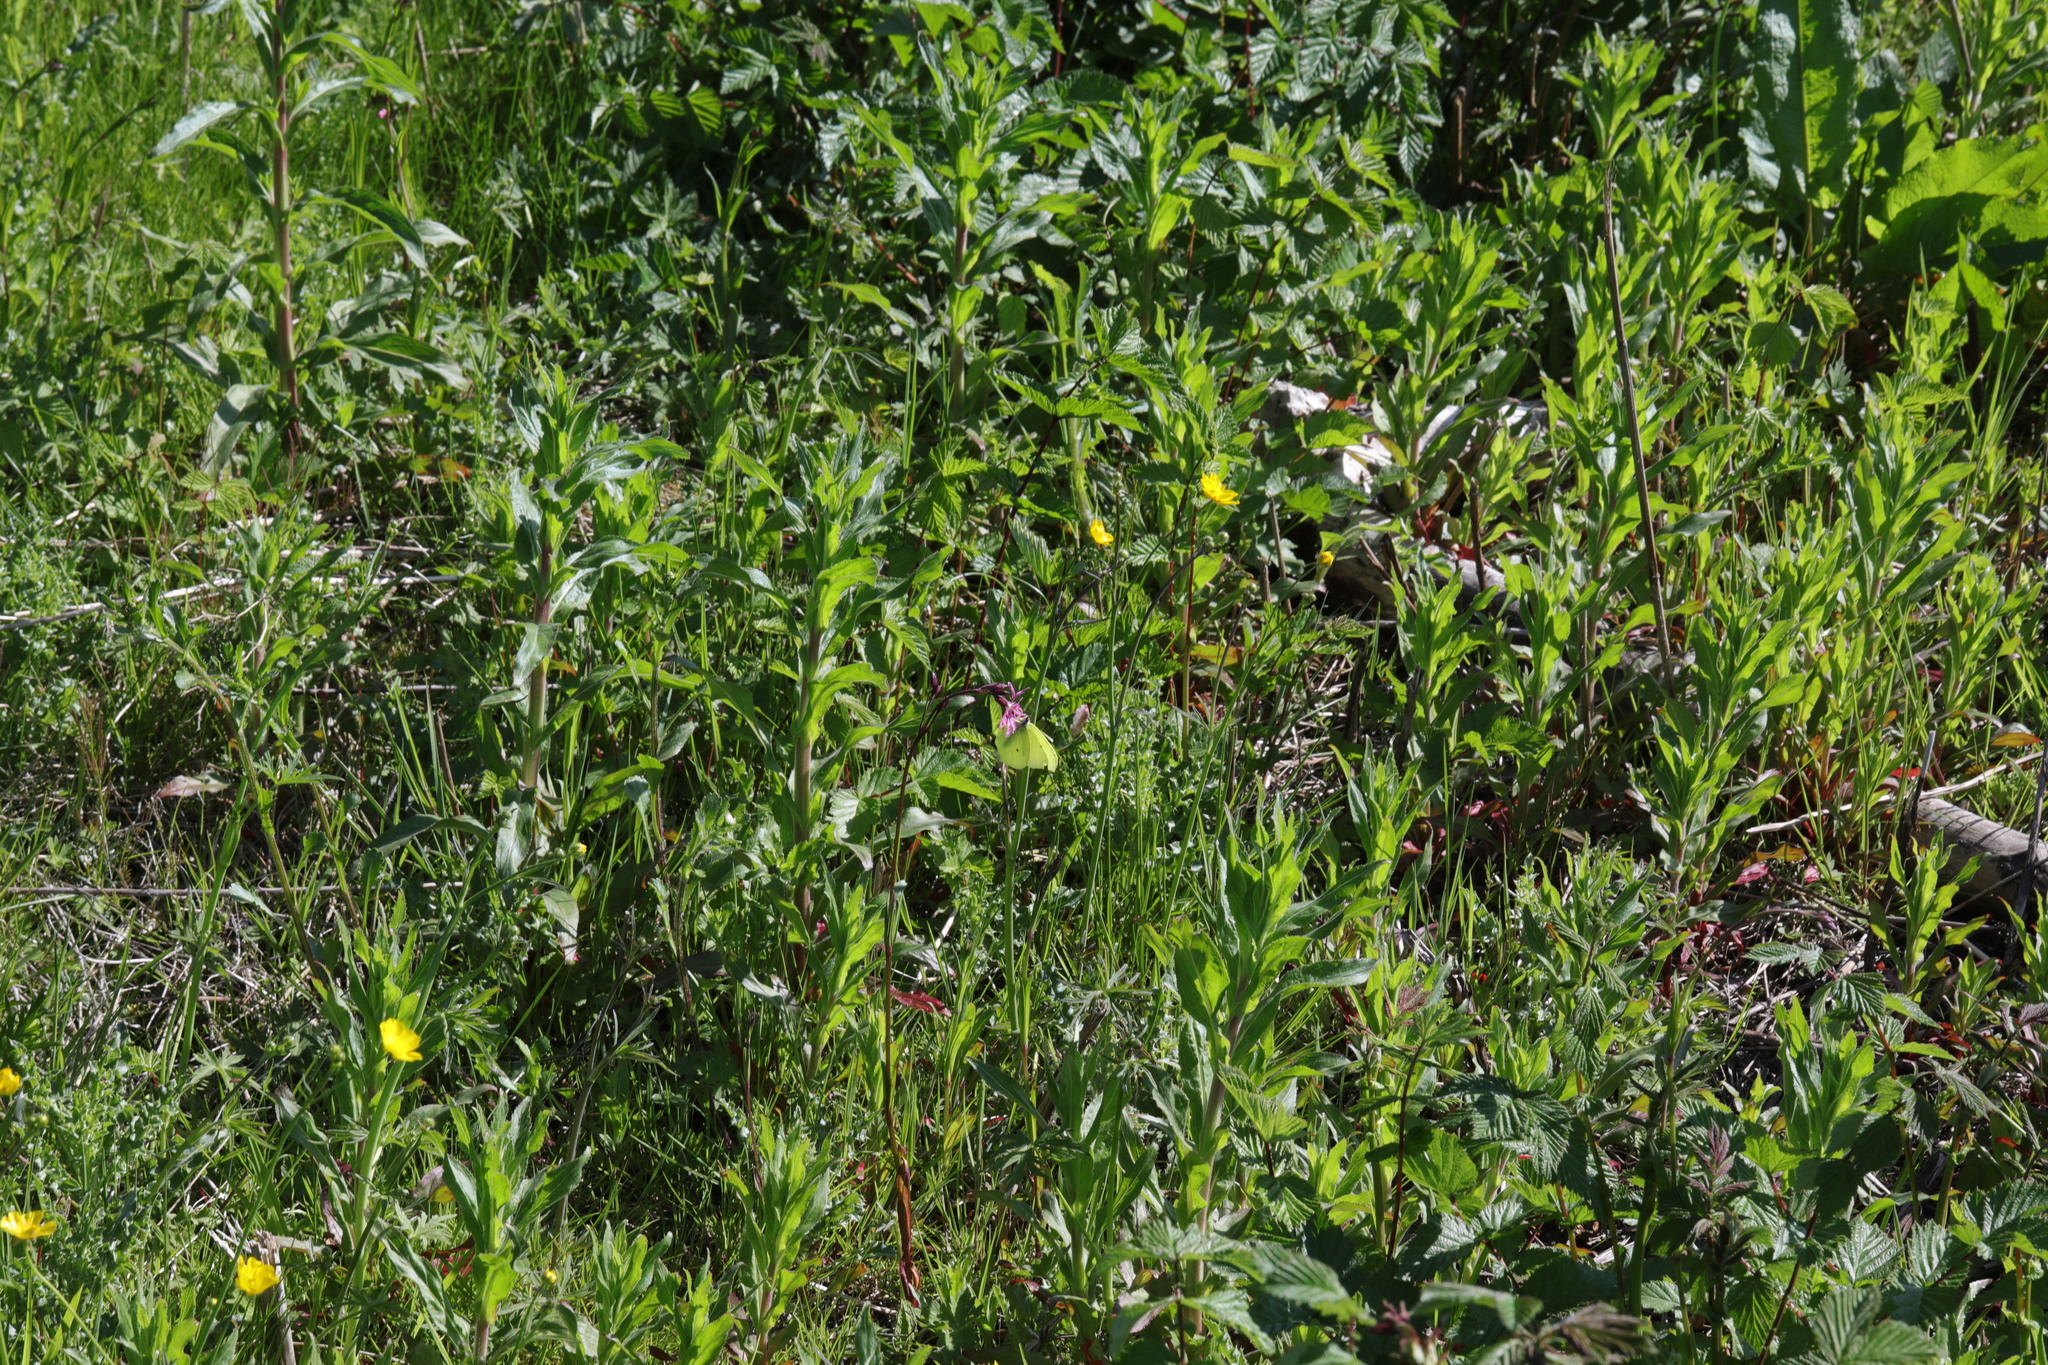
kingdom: Animalia
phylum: Arthropoda
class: Insecta
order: Lepidoptera
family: Pieridae
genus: Gonepteryx
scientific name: Gonepteryx rhamni
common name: Brimstone
